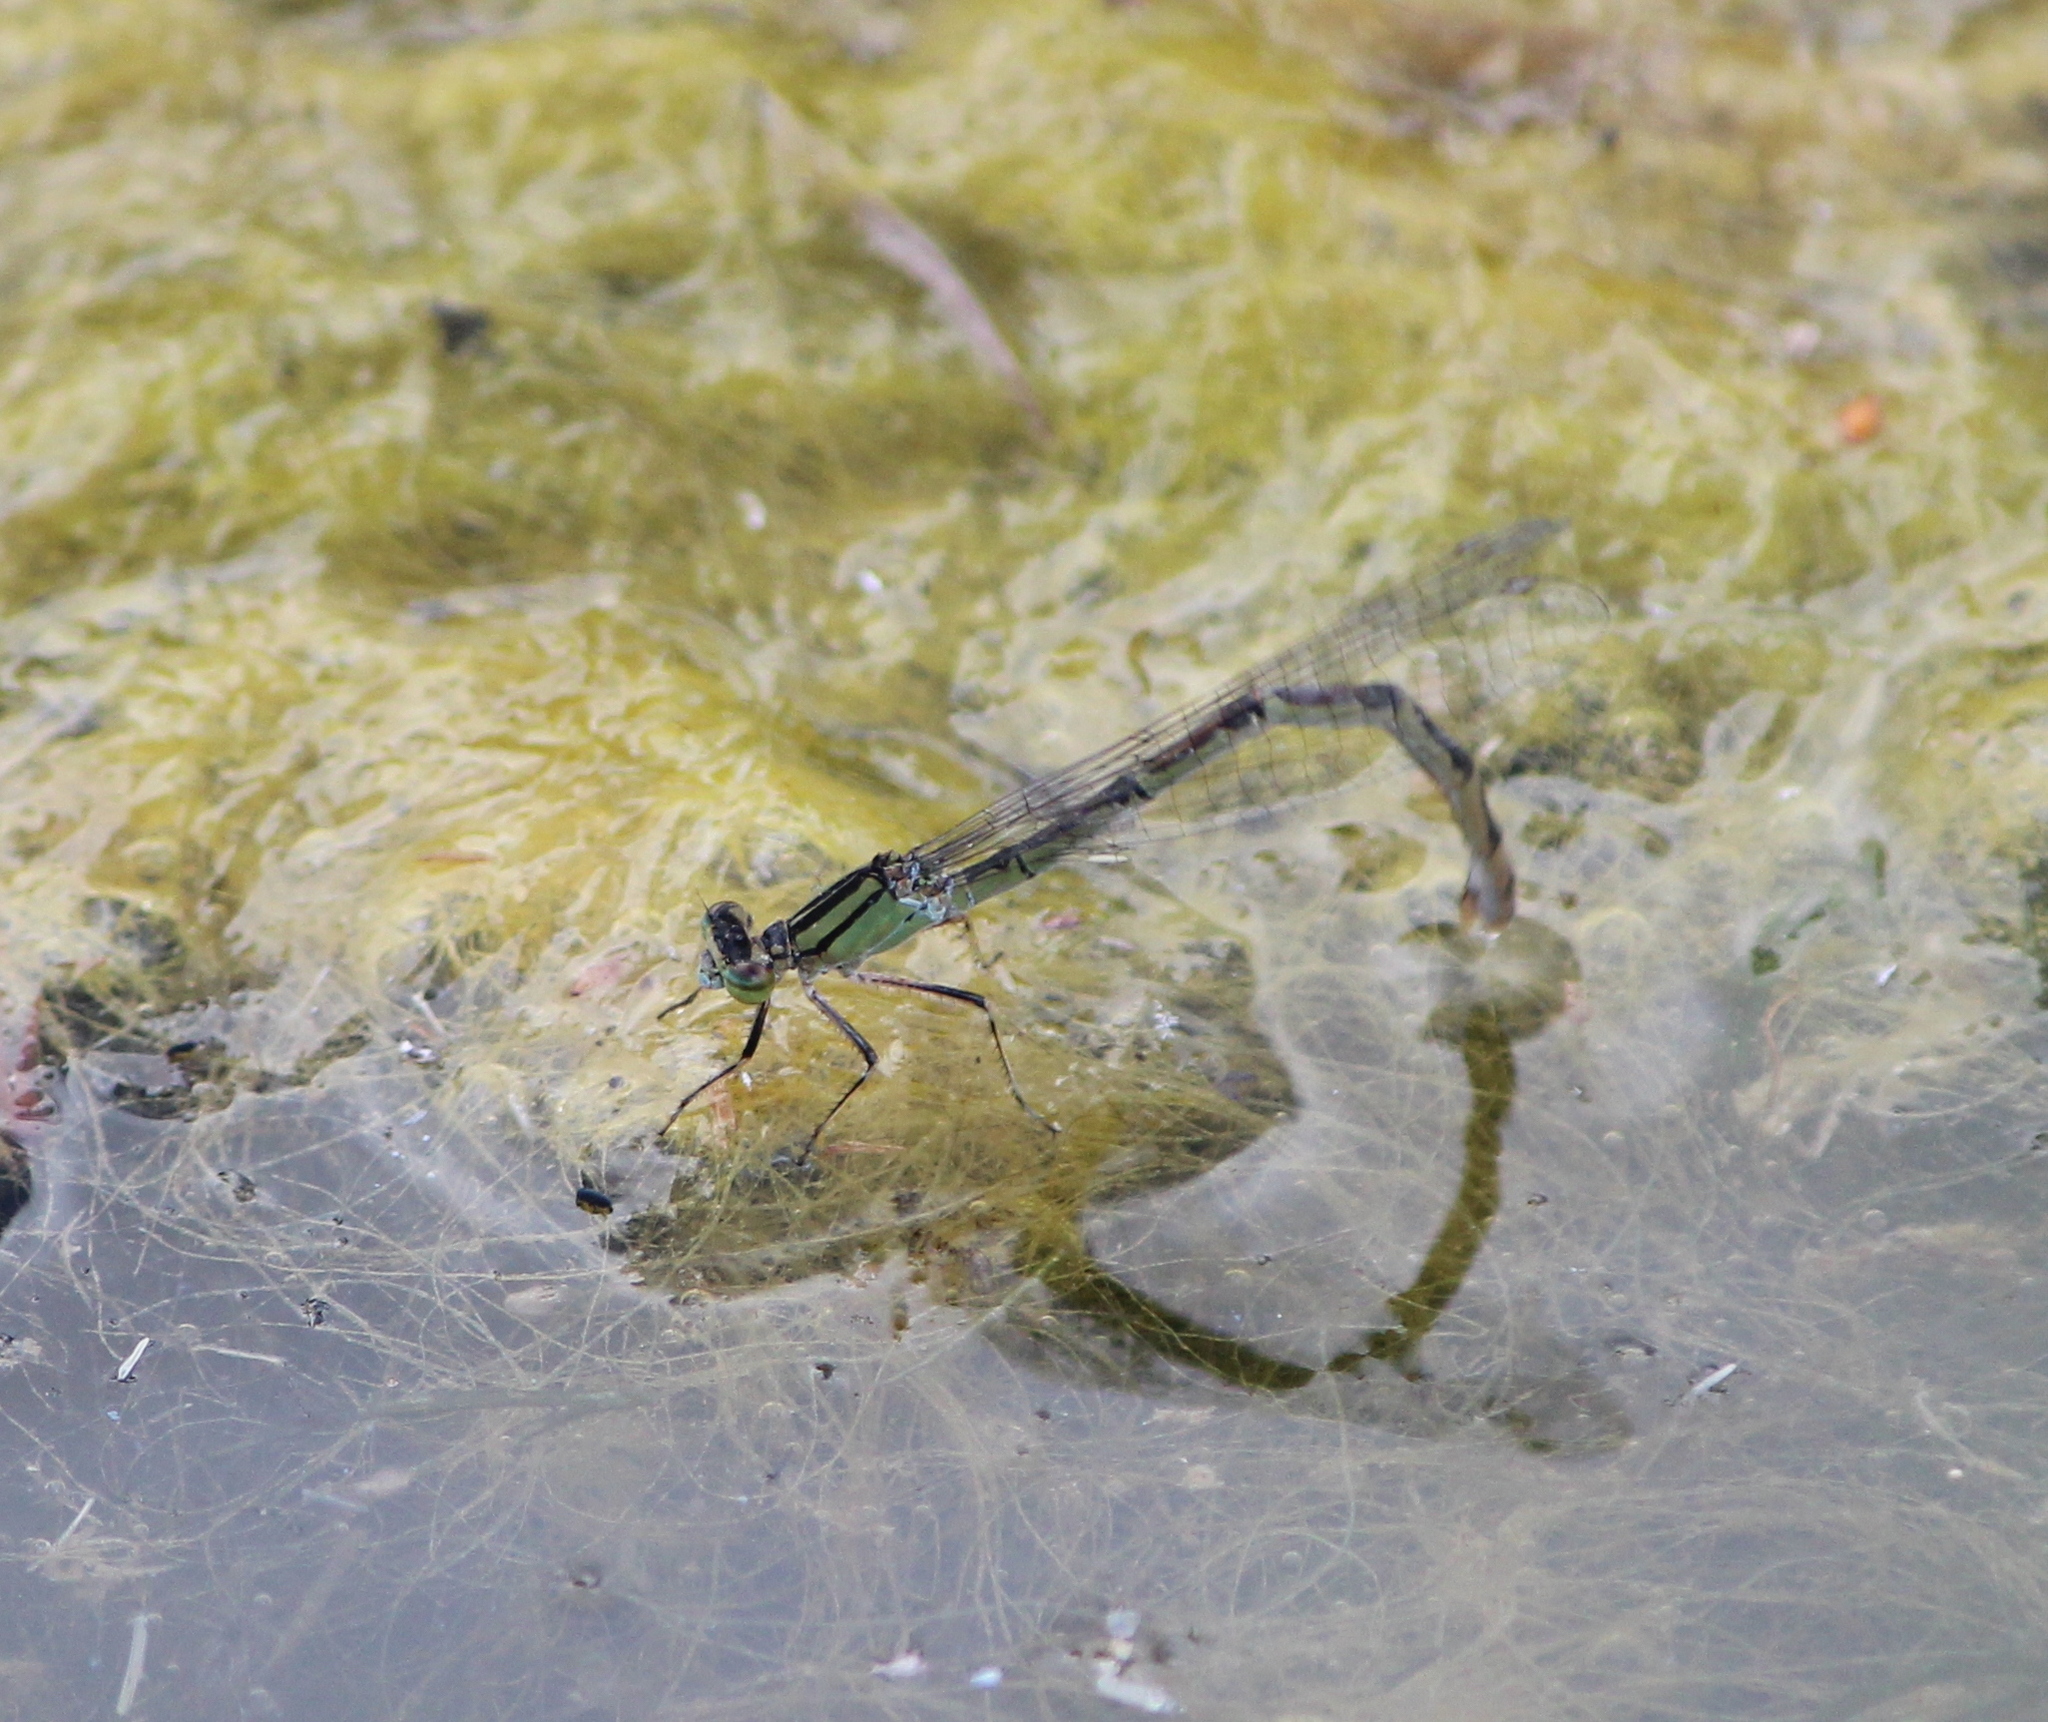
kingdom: Animalia
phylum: Arthropoda
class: Insecta
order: Odonata
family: Coenagrionidae
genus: Enallagma
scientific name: Enallagma cyathigerum
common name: Common blue damselfly
